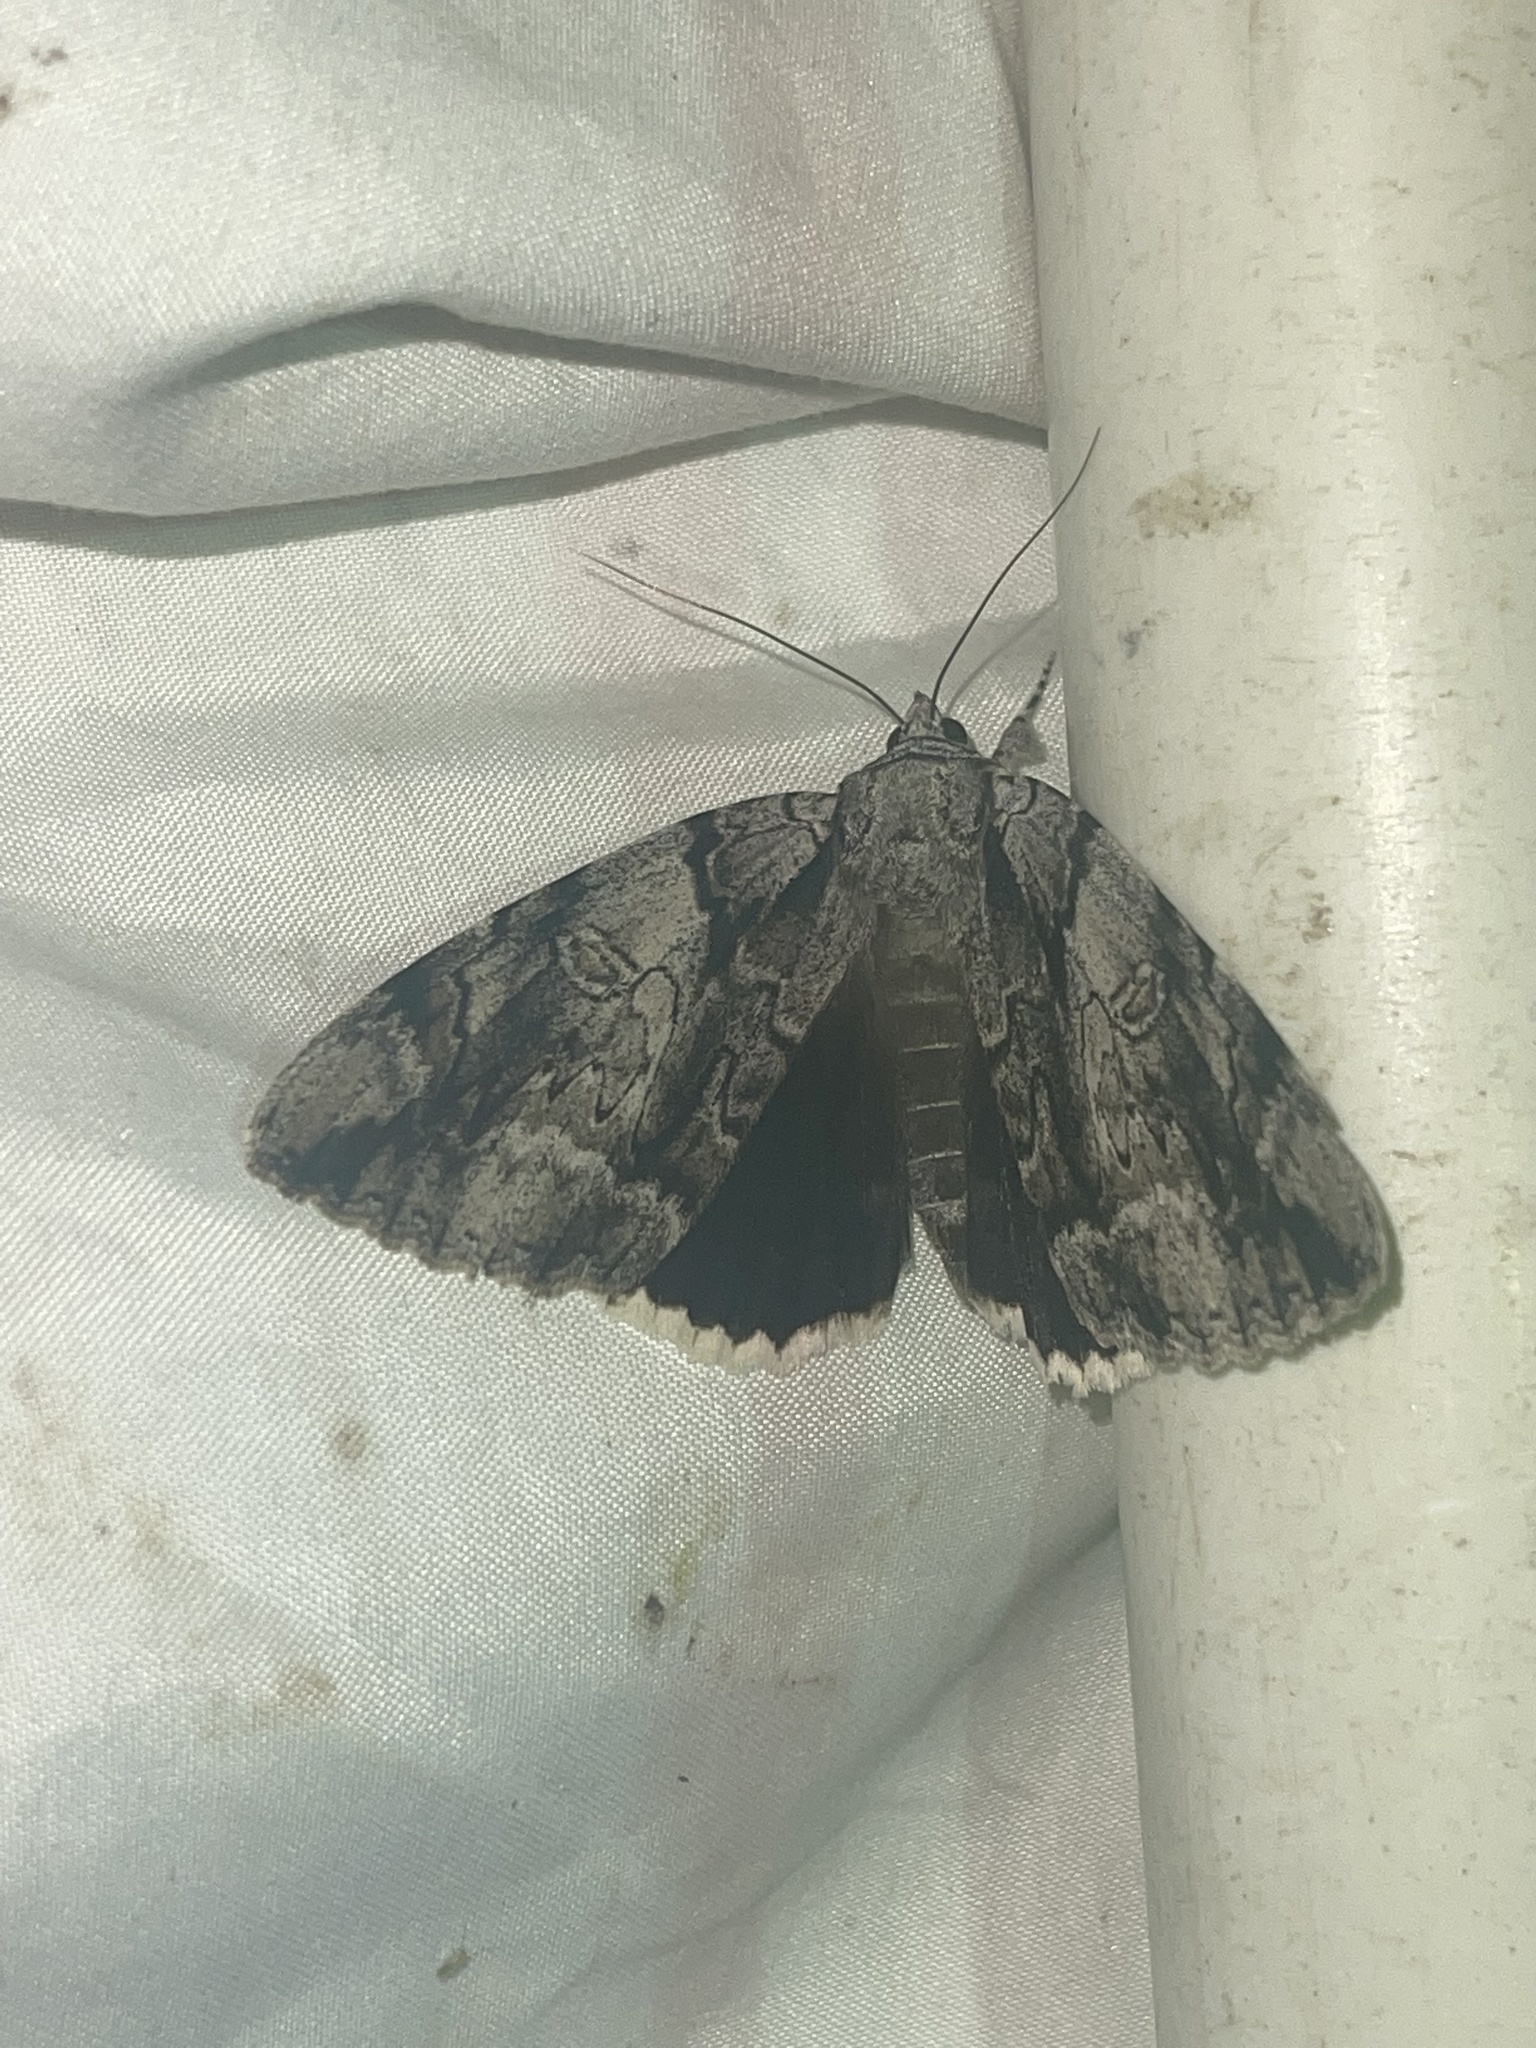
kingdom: Animalia
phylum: Arthropoda
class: Insecta
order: Lepidoptera
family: Erebidae
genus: Catocala
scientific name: Catocala vidua
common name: The widow
